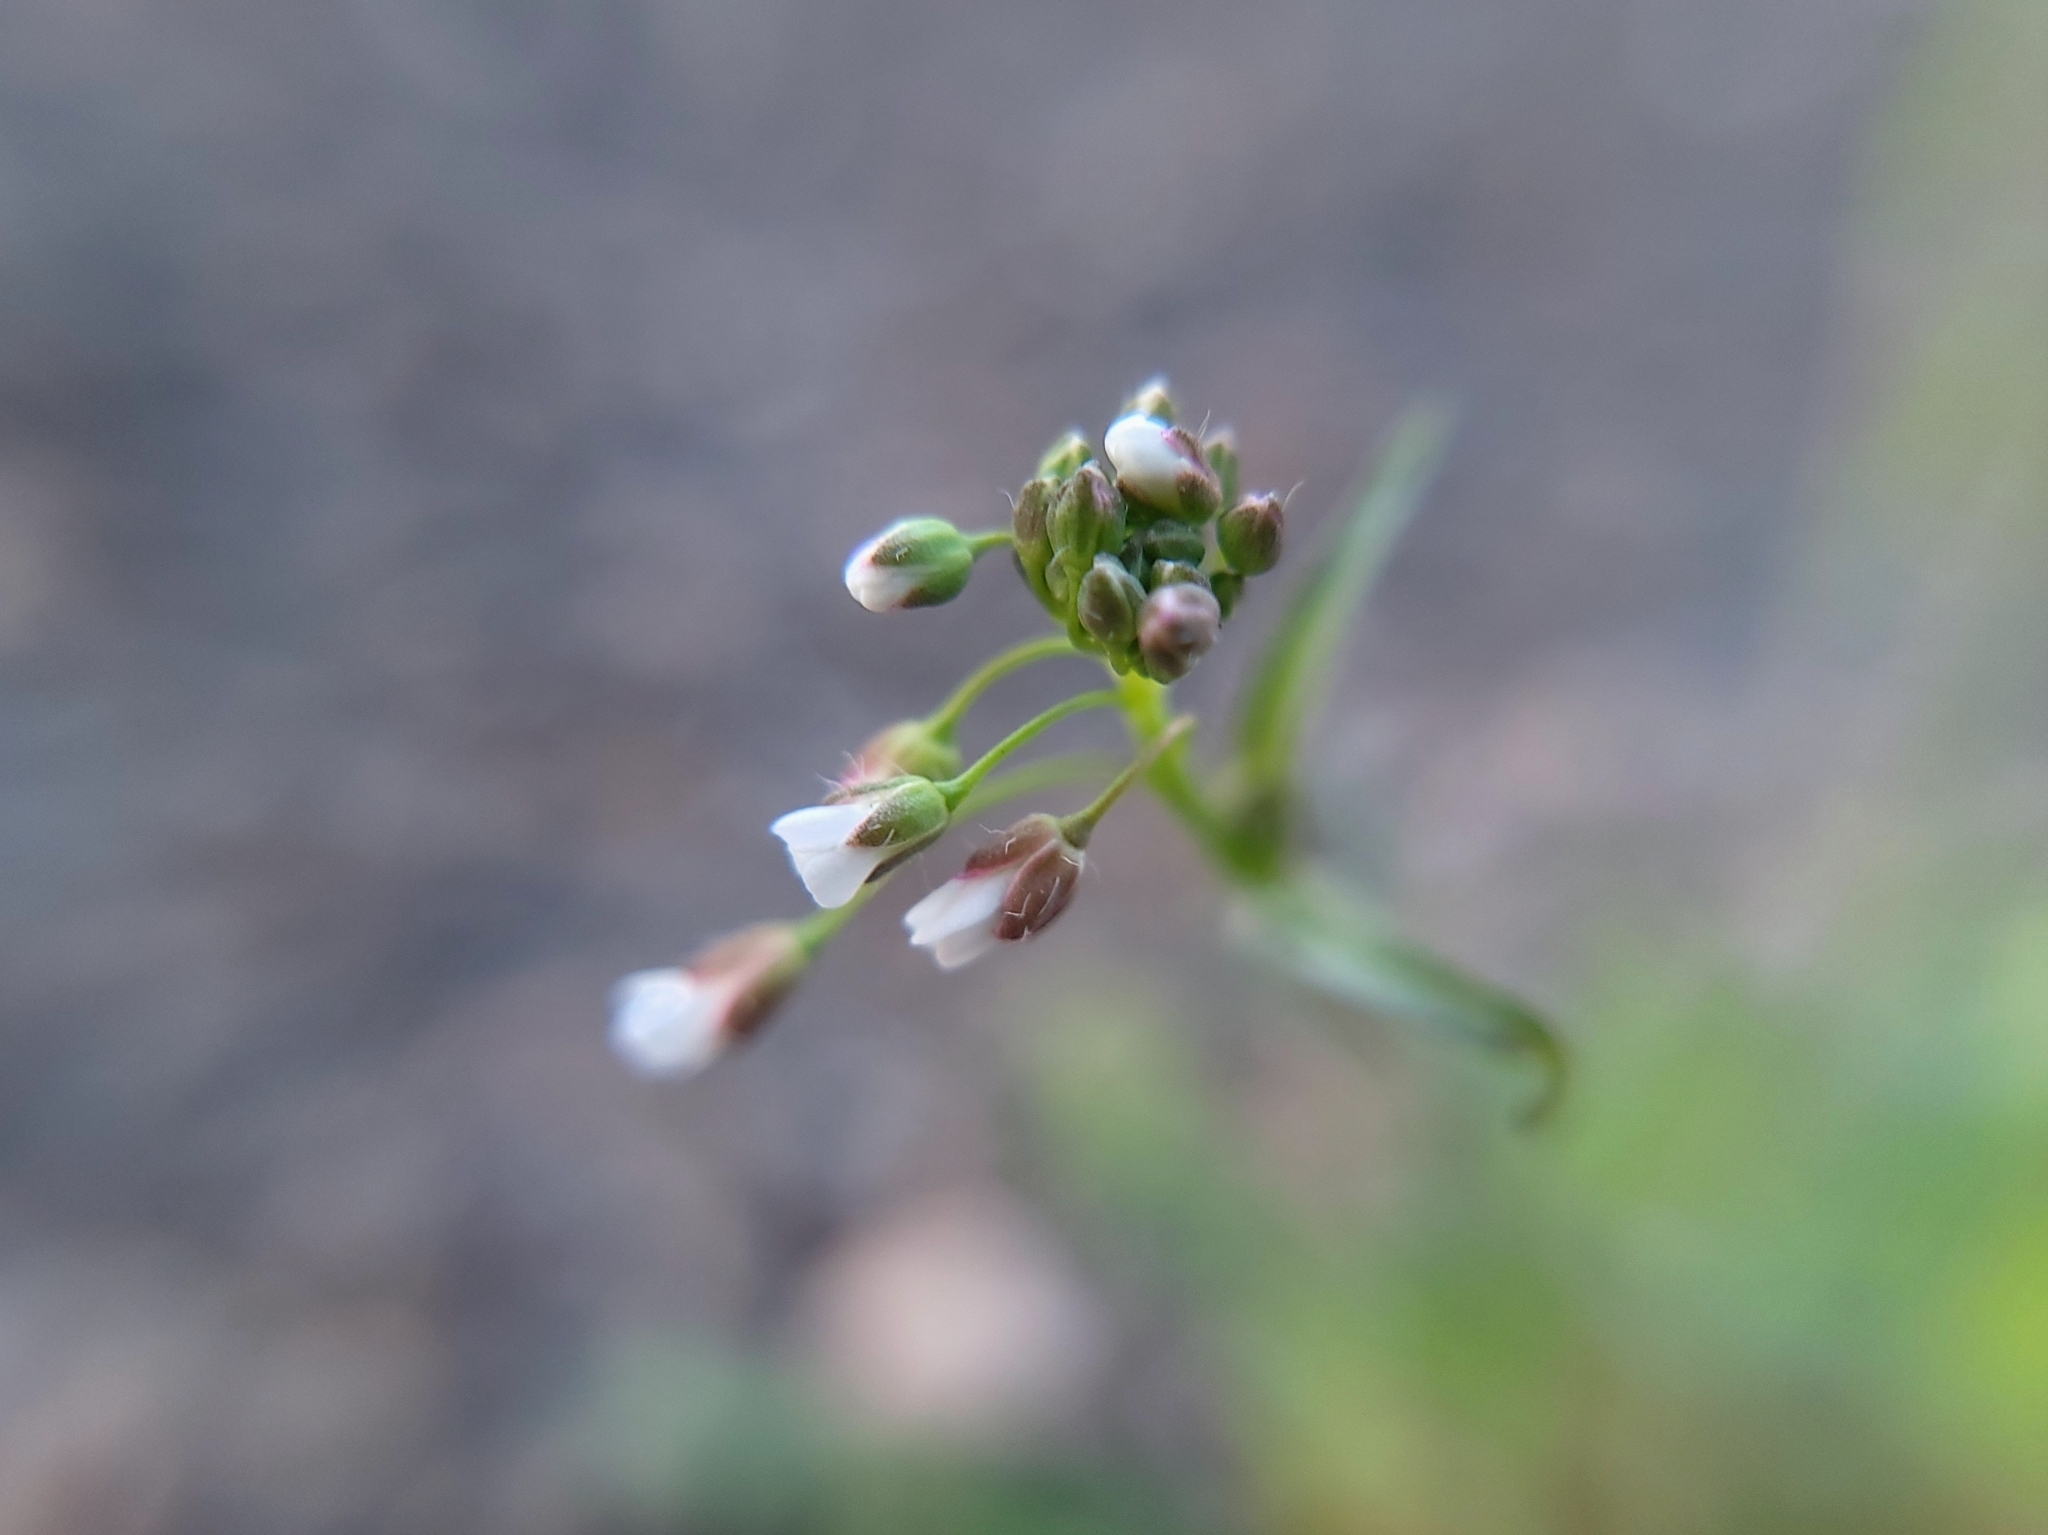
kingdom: Plantae
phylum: Tracheophyta
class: Magnoliopsida
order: Brassicales
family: Brassicaceae
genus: Capsella
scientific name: Capsella bursa-pastoris
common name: Shepherd's purse
